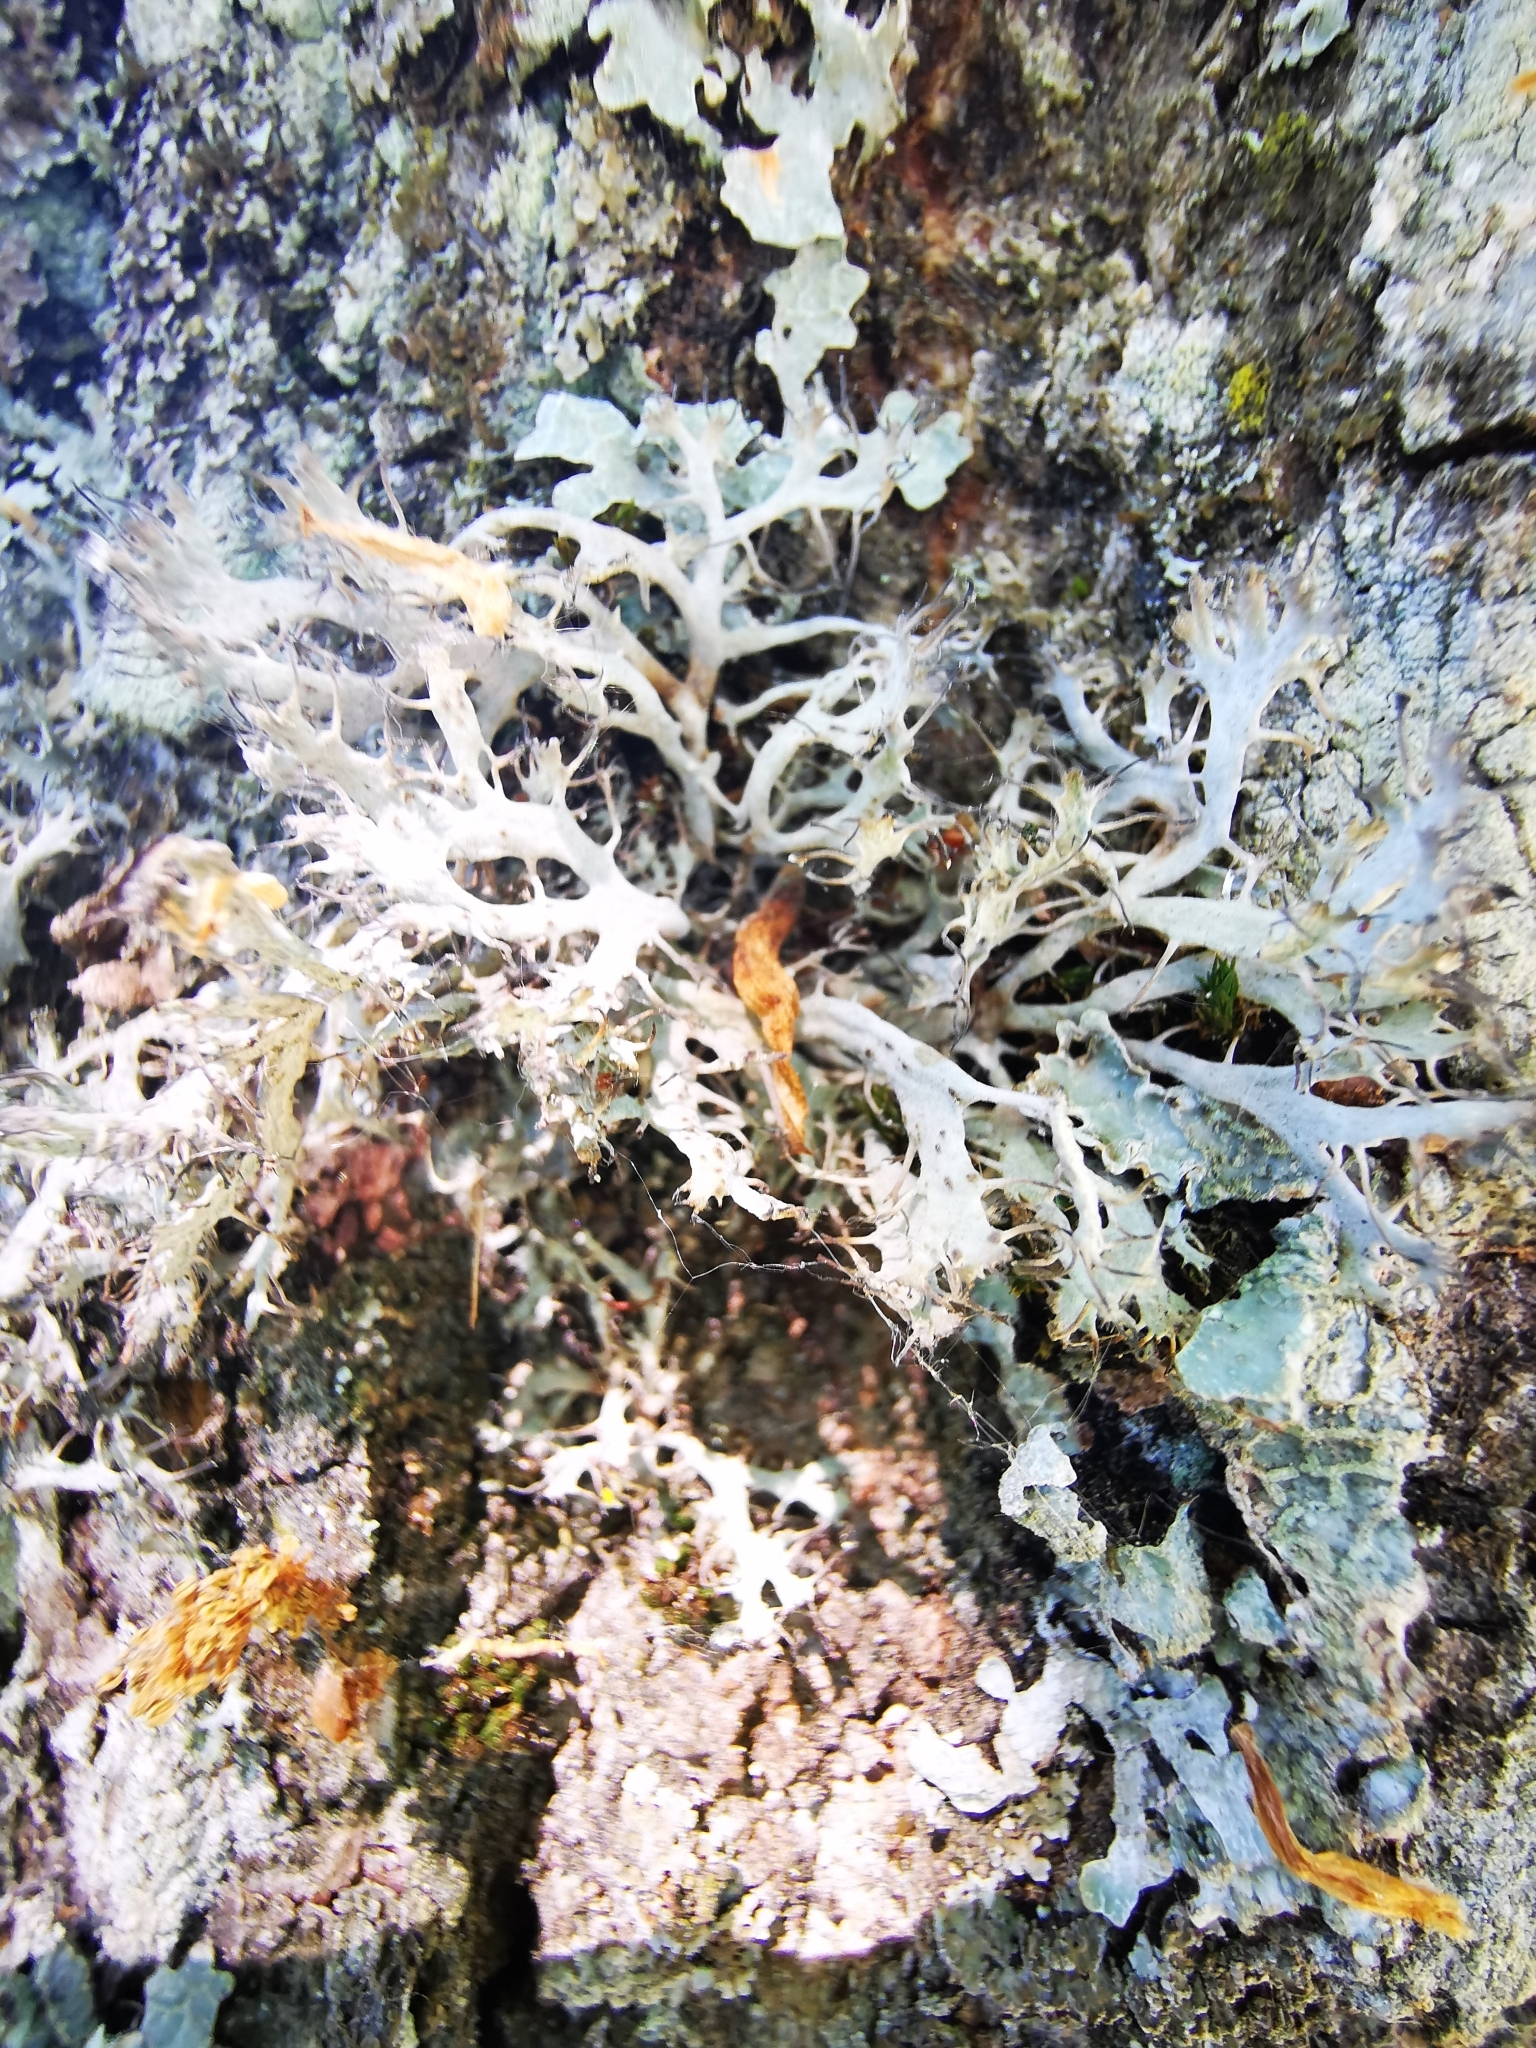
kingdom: Fungi
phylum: Ascomycota
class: Lecanoromycetes
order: Caliciales
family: Physciaceae
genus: Anaptychia
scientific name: Anaptychia ciliaris
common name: Great ciliated lichen
